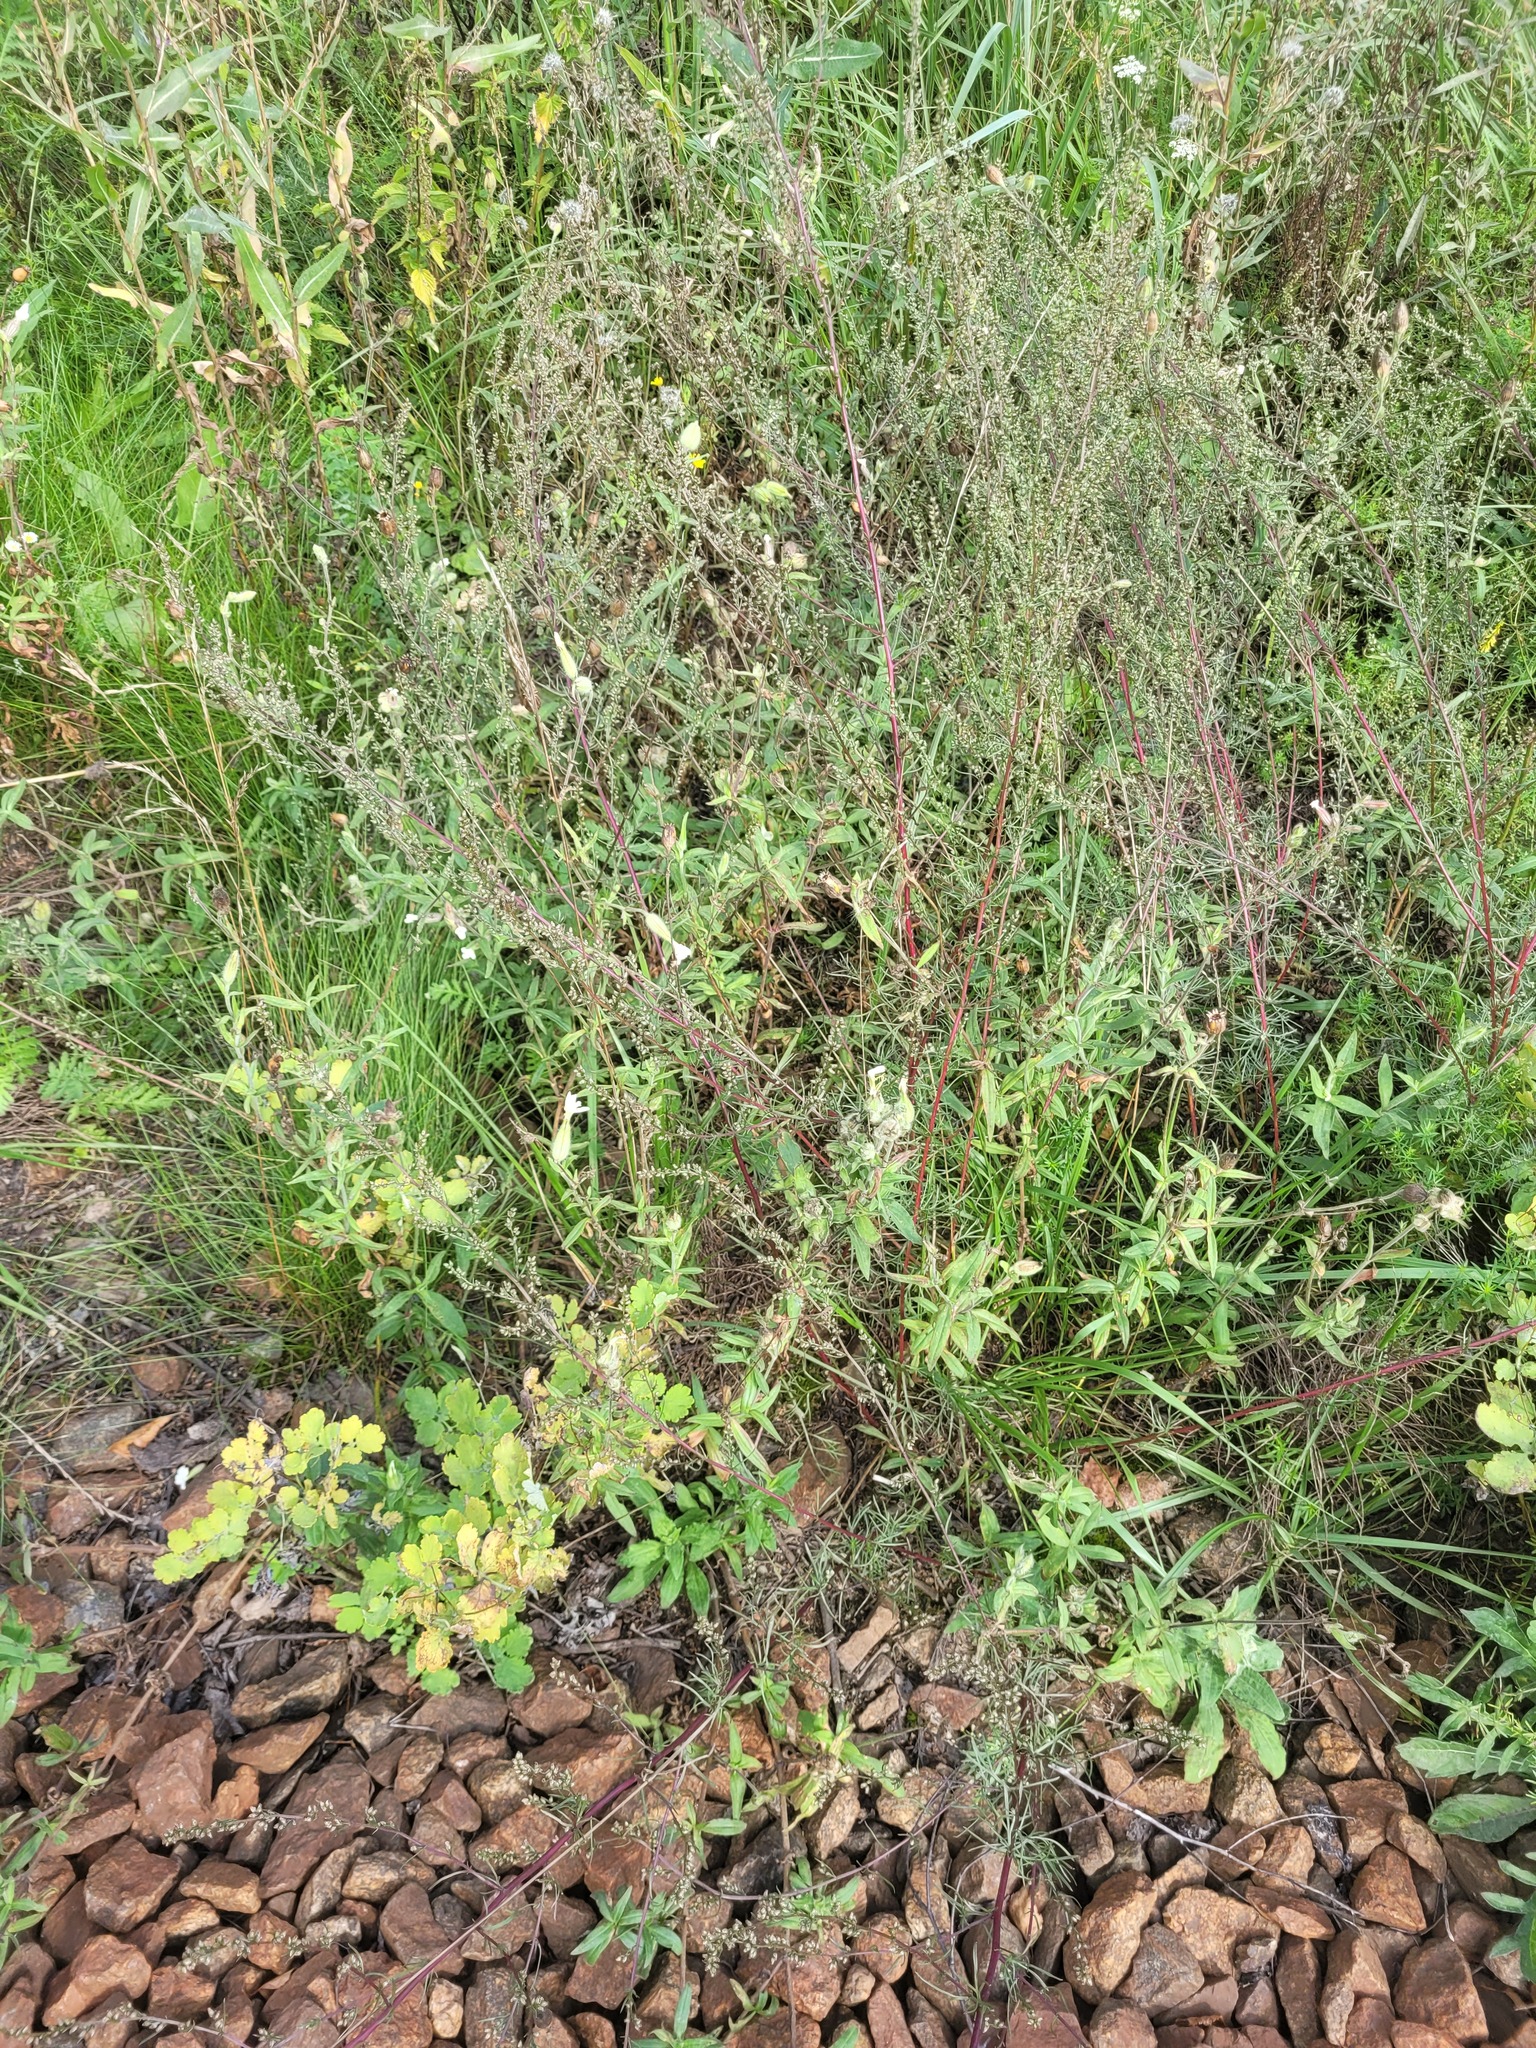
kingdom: Plantae
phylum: Tracheophyta
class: Magnoliopsida
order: Asterales
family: Asteraceae
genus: Artemisia
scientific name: Artemisia campestris
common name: Field wormwood
